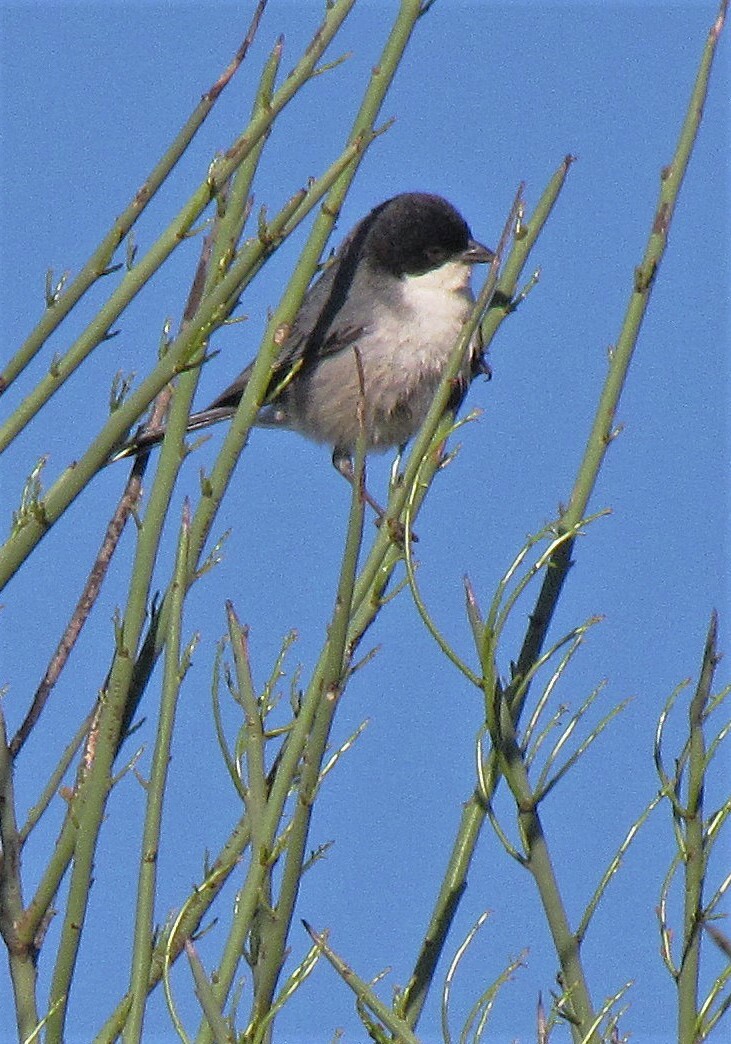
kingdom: Animalia
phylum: Chordata
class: Aves
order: Passeriformes
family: Thraupidae
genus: Microspingus
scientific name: Microspingus melanoleucus
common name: Black-capped warbling-finch
